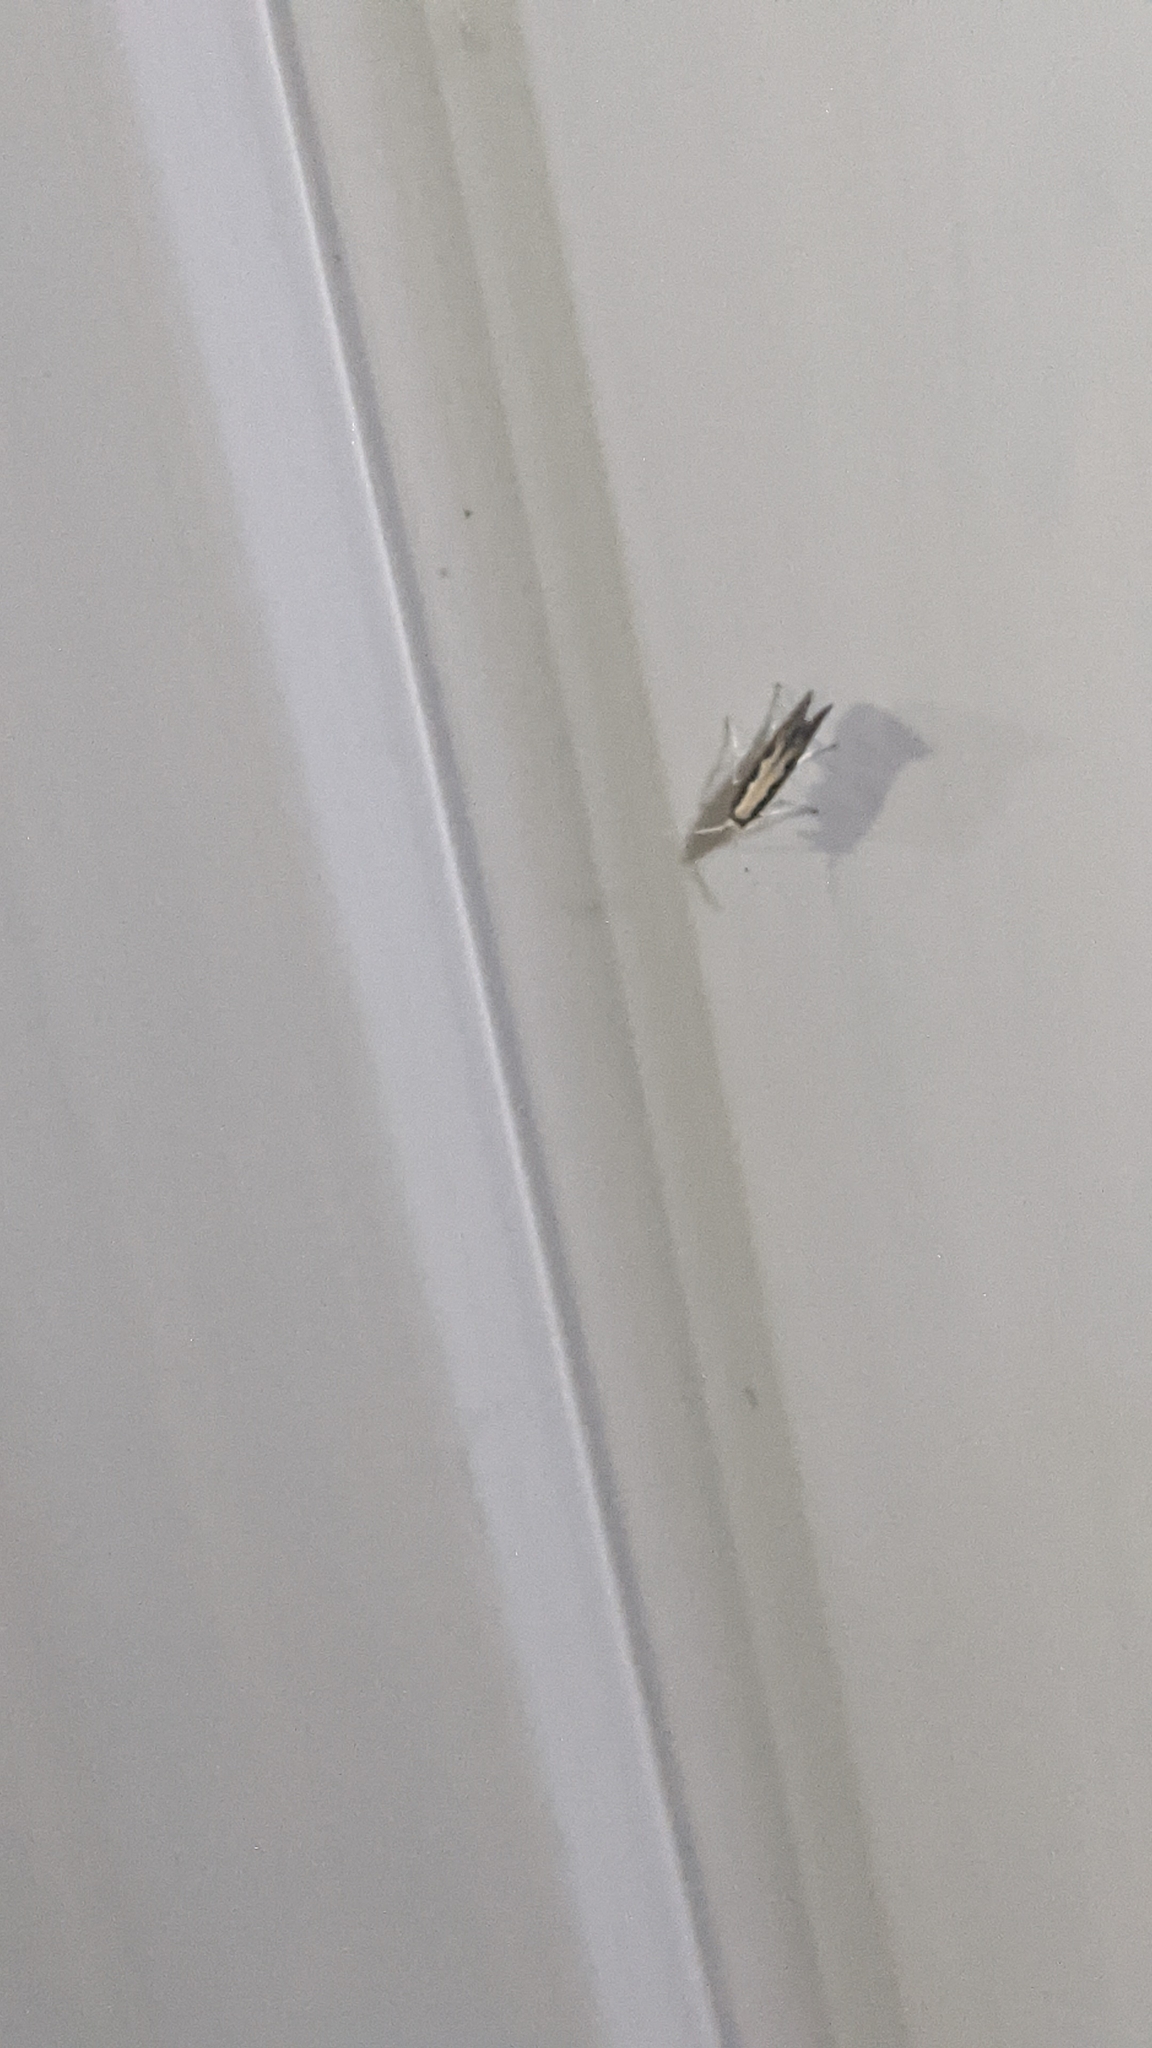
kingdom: Animalia
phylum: Arthropoda
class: Insecta
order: Lepidoptera
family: Plutellidae
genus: Plutella
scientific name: Plutella xylostella
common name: Diamond-back moth
